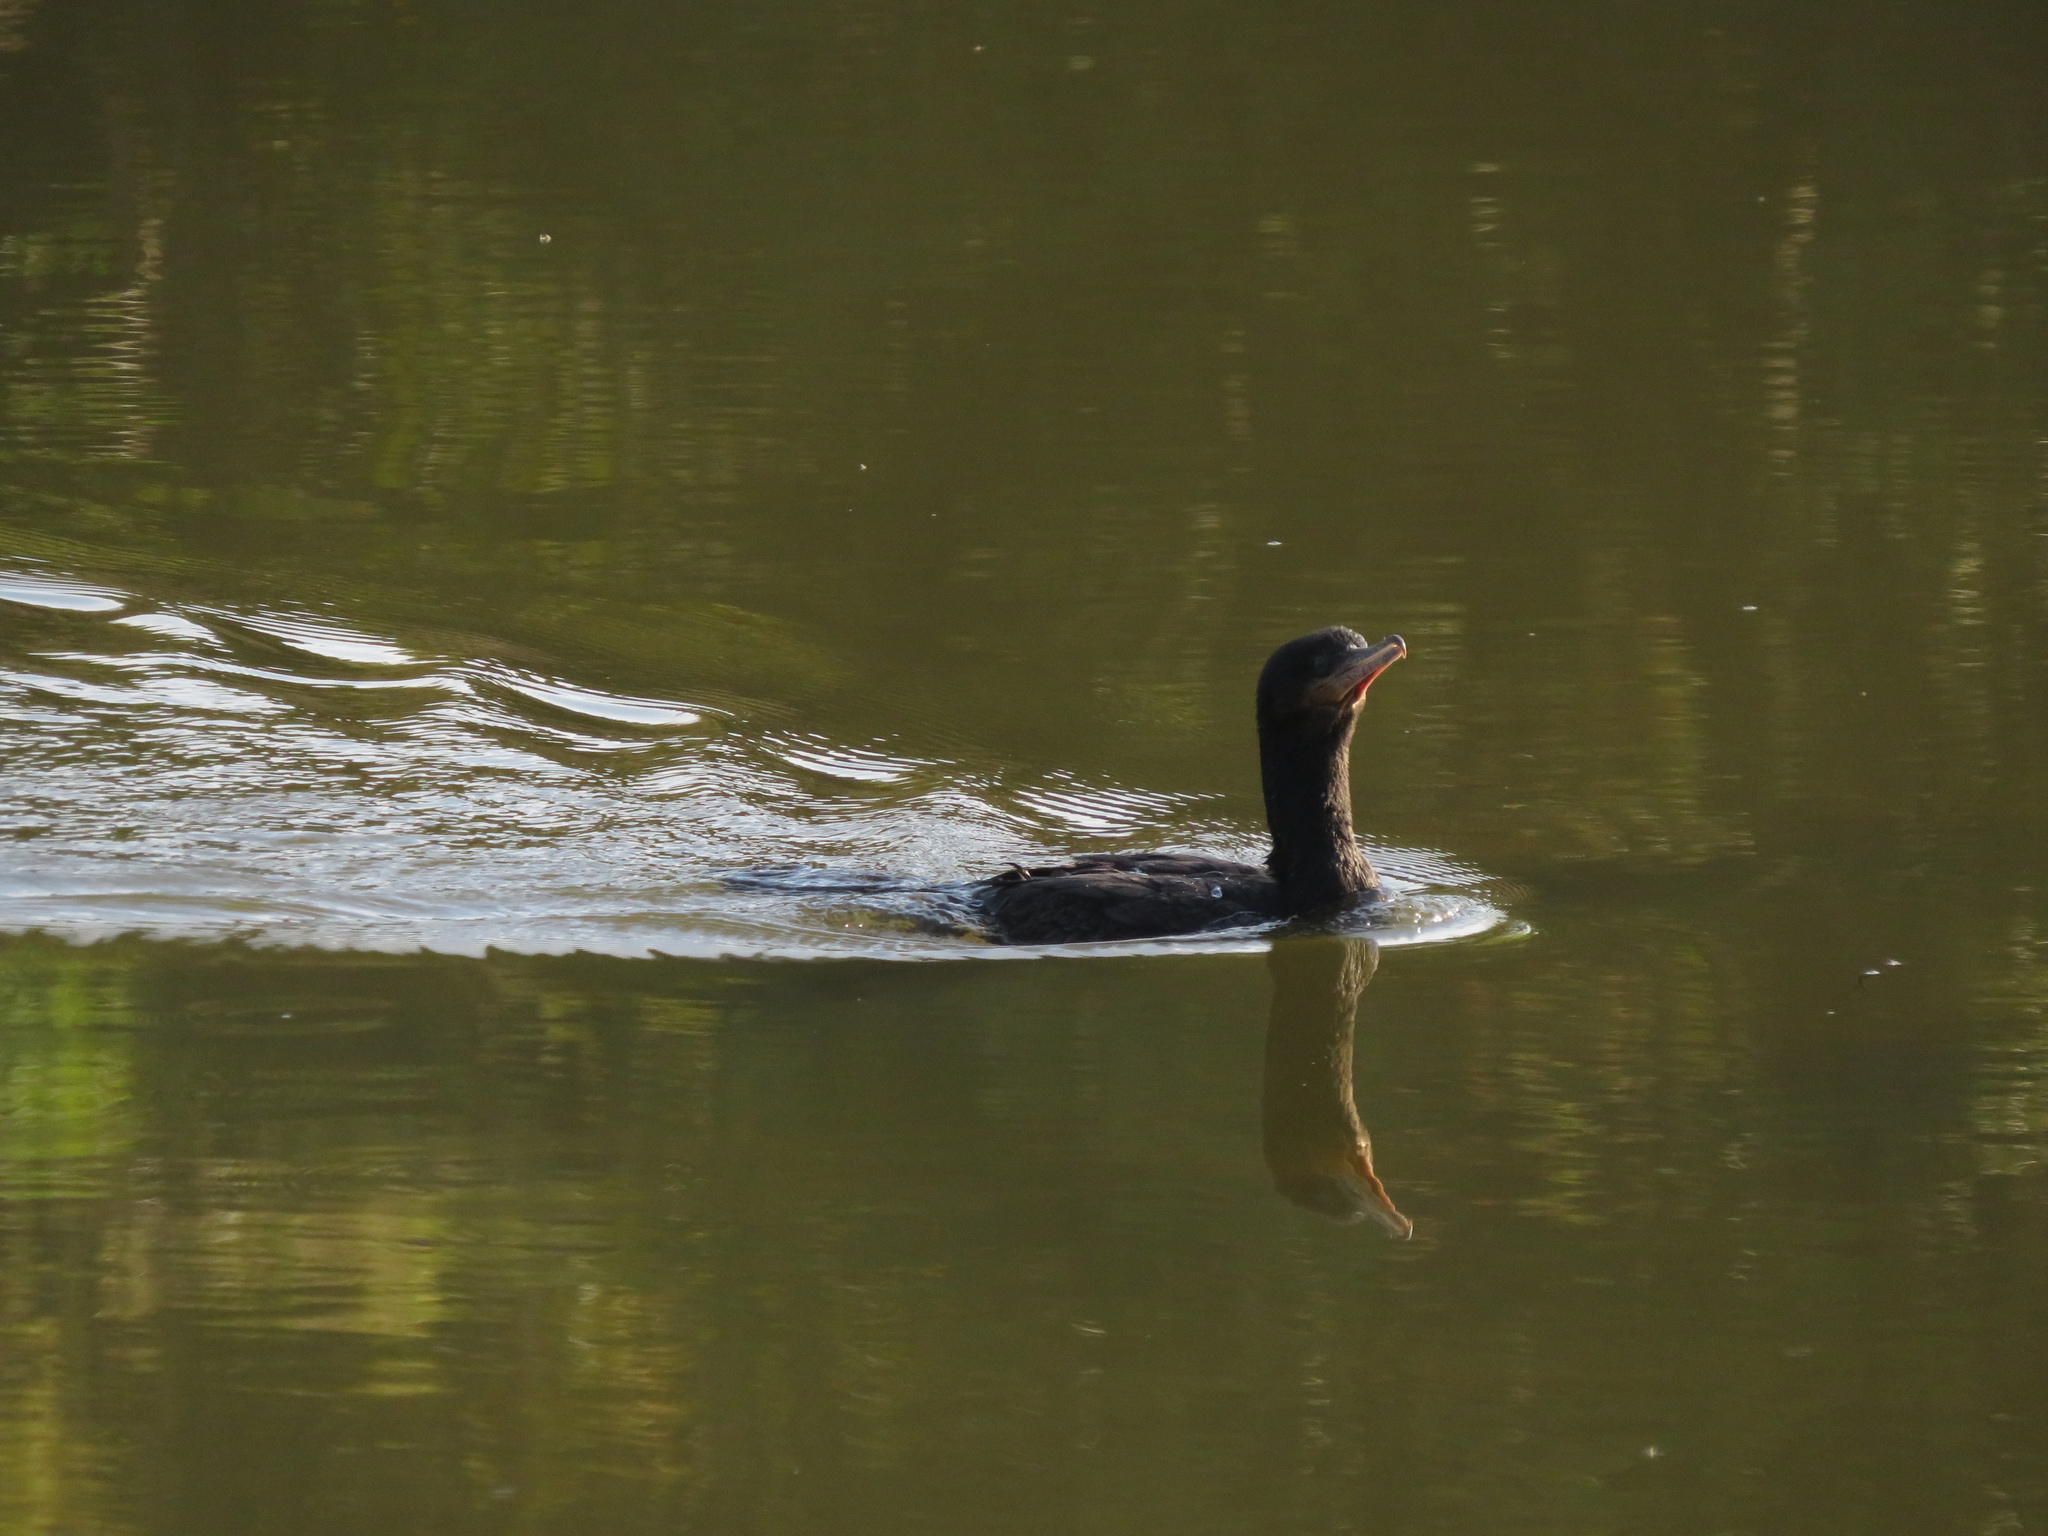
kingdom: Animalia
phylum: Chordata
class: Aves
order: Suliformes
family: Phalacrocoracidae
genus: Phalacrocorax
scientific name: Phalacrocorax brasilianus
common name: Neotropic cormorant
